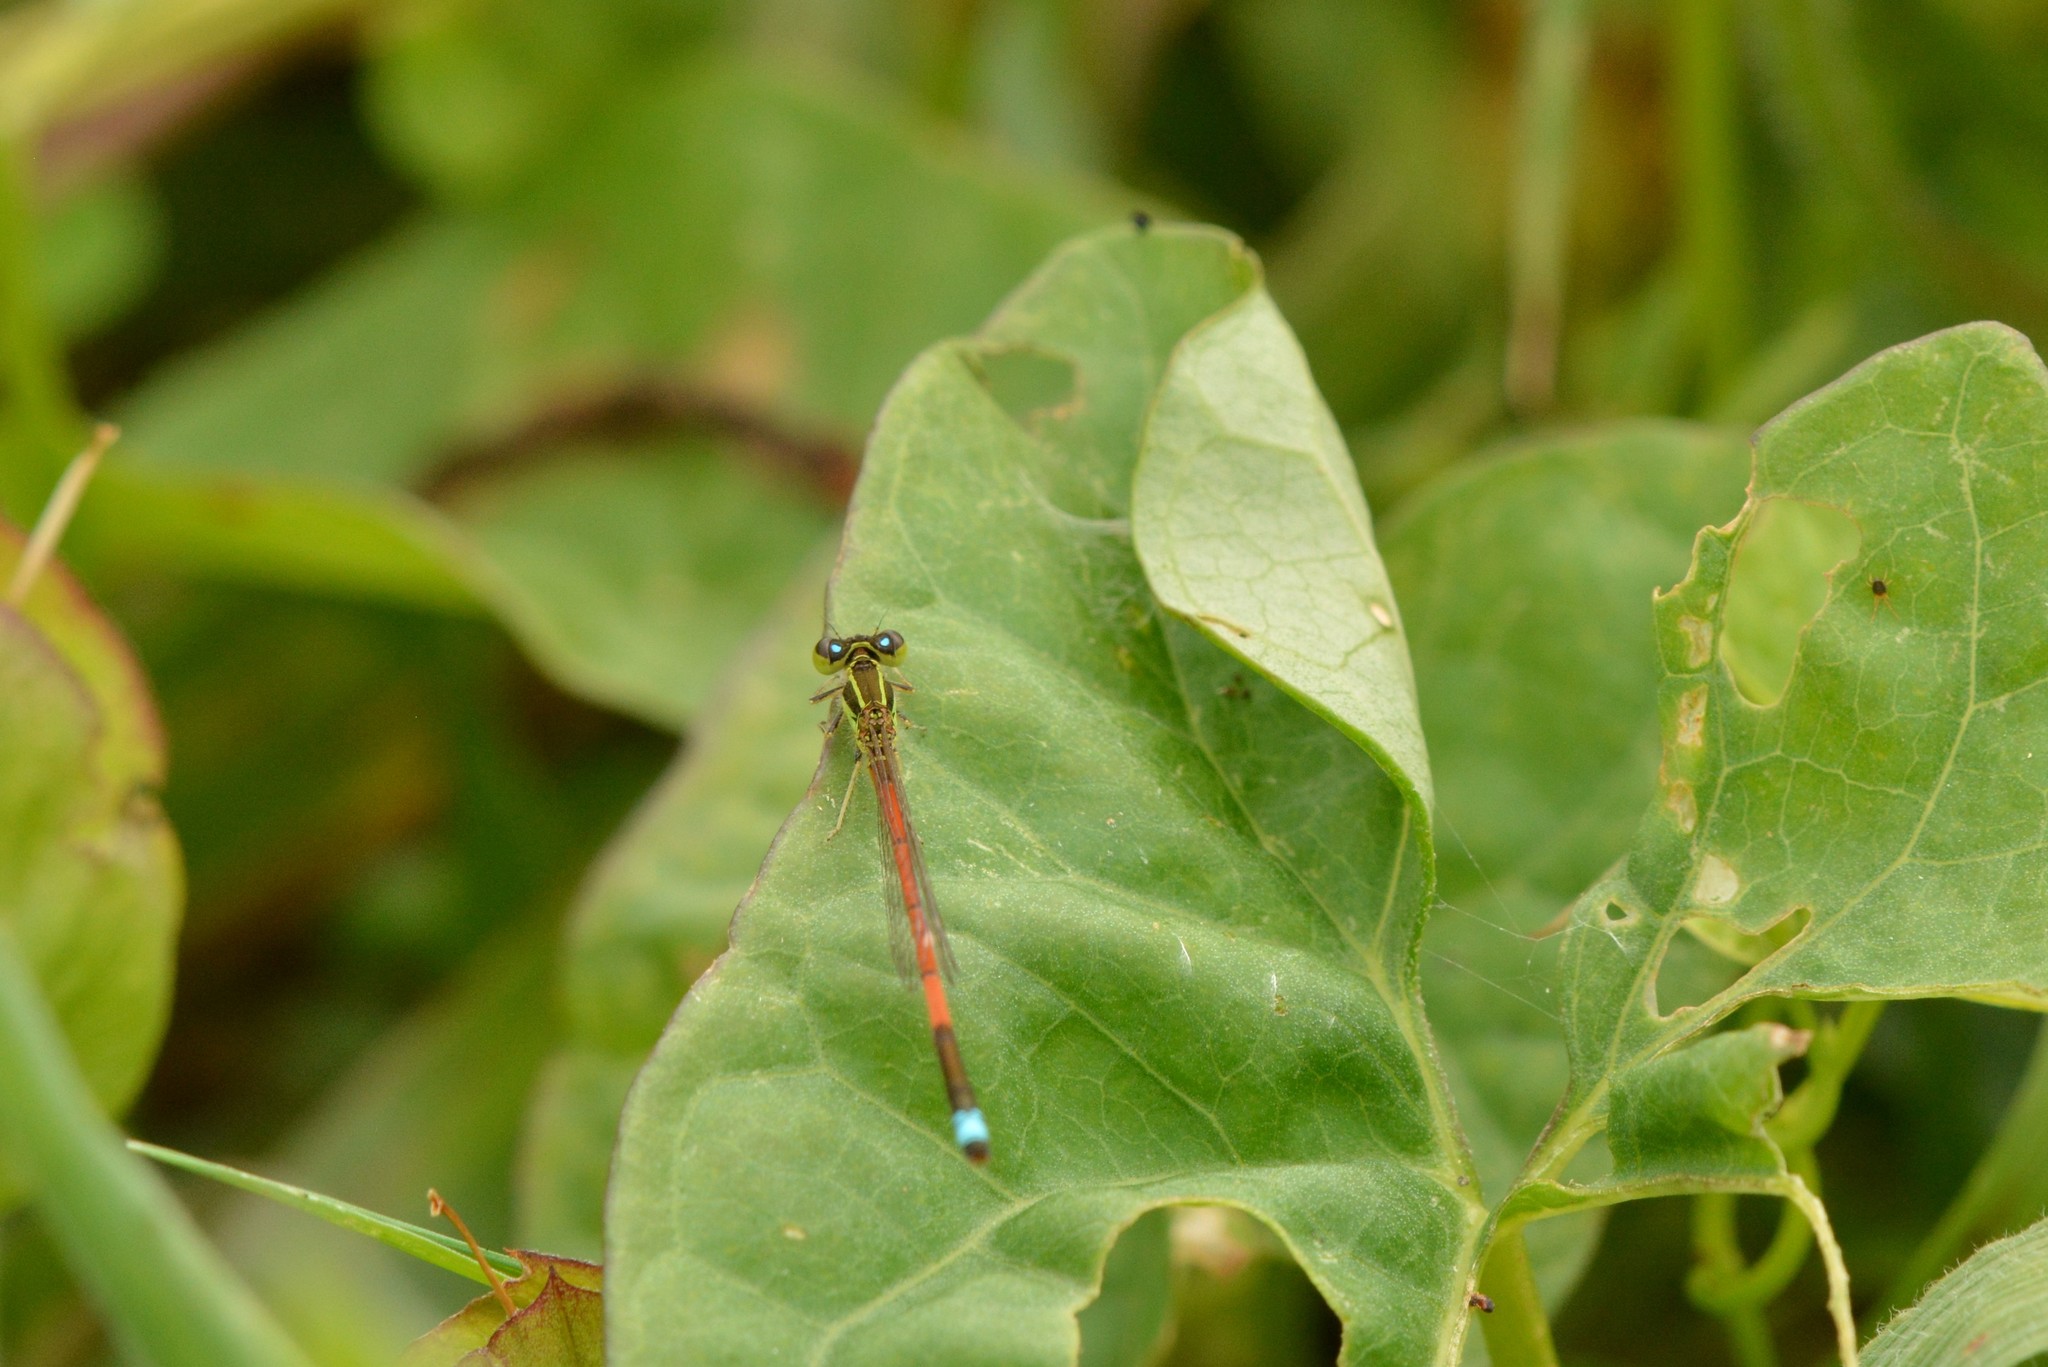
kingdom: Animalia
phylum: Arthropoda
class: Insecta
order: Odonata
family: Coenagrionidae
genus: Ischnura
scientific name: Ischnura aurora
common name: Gossamer damselfly
